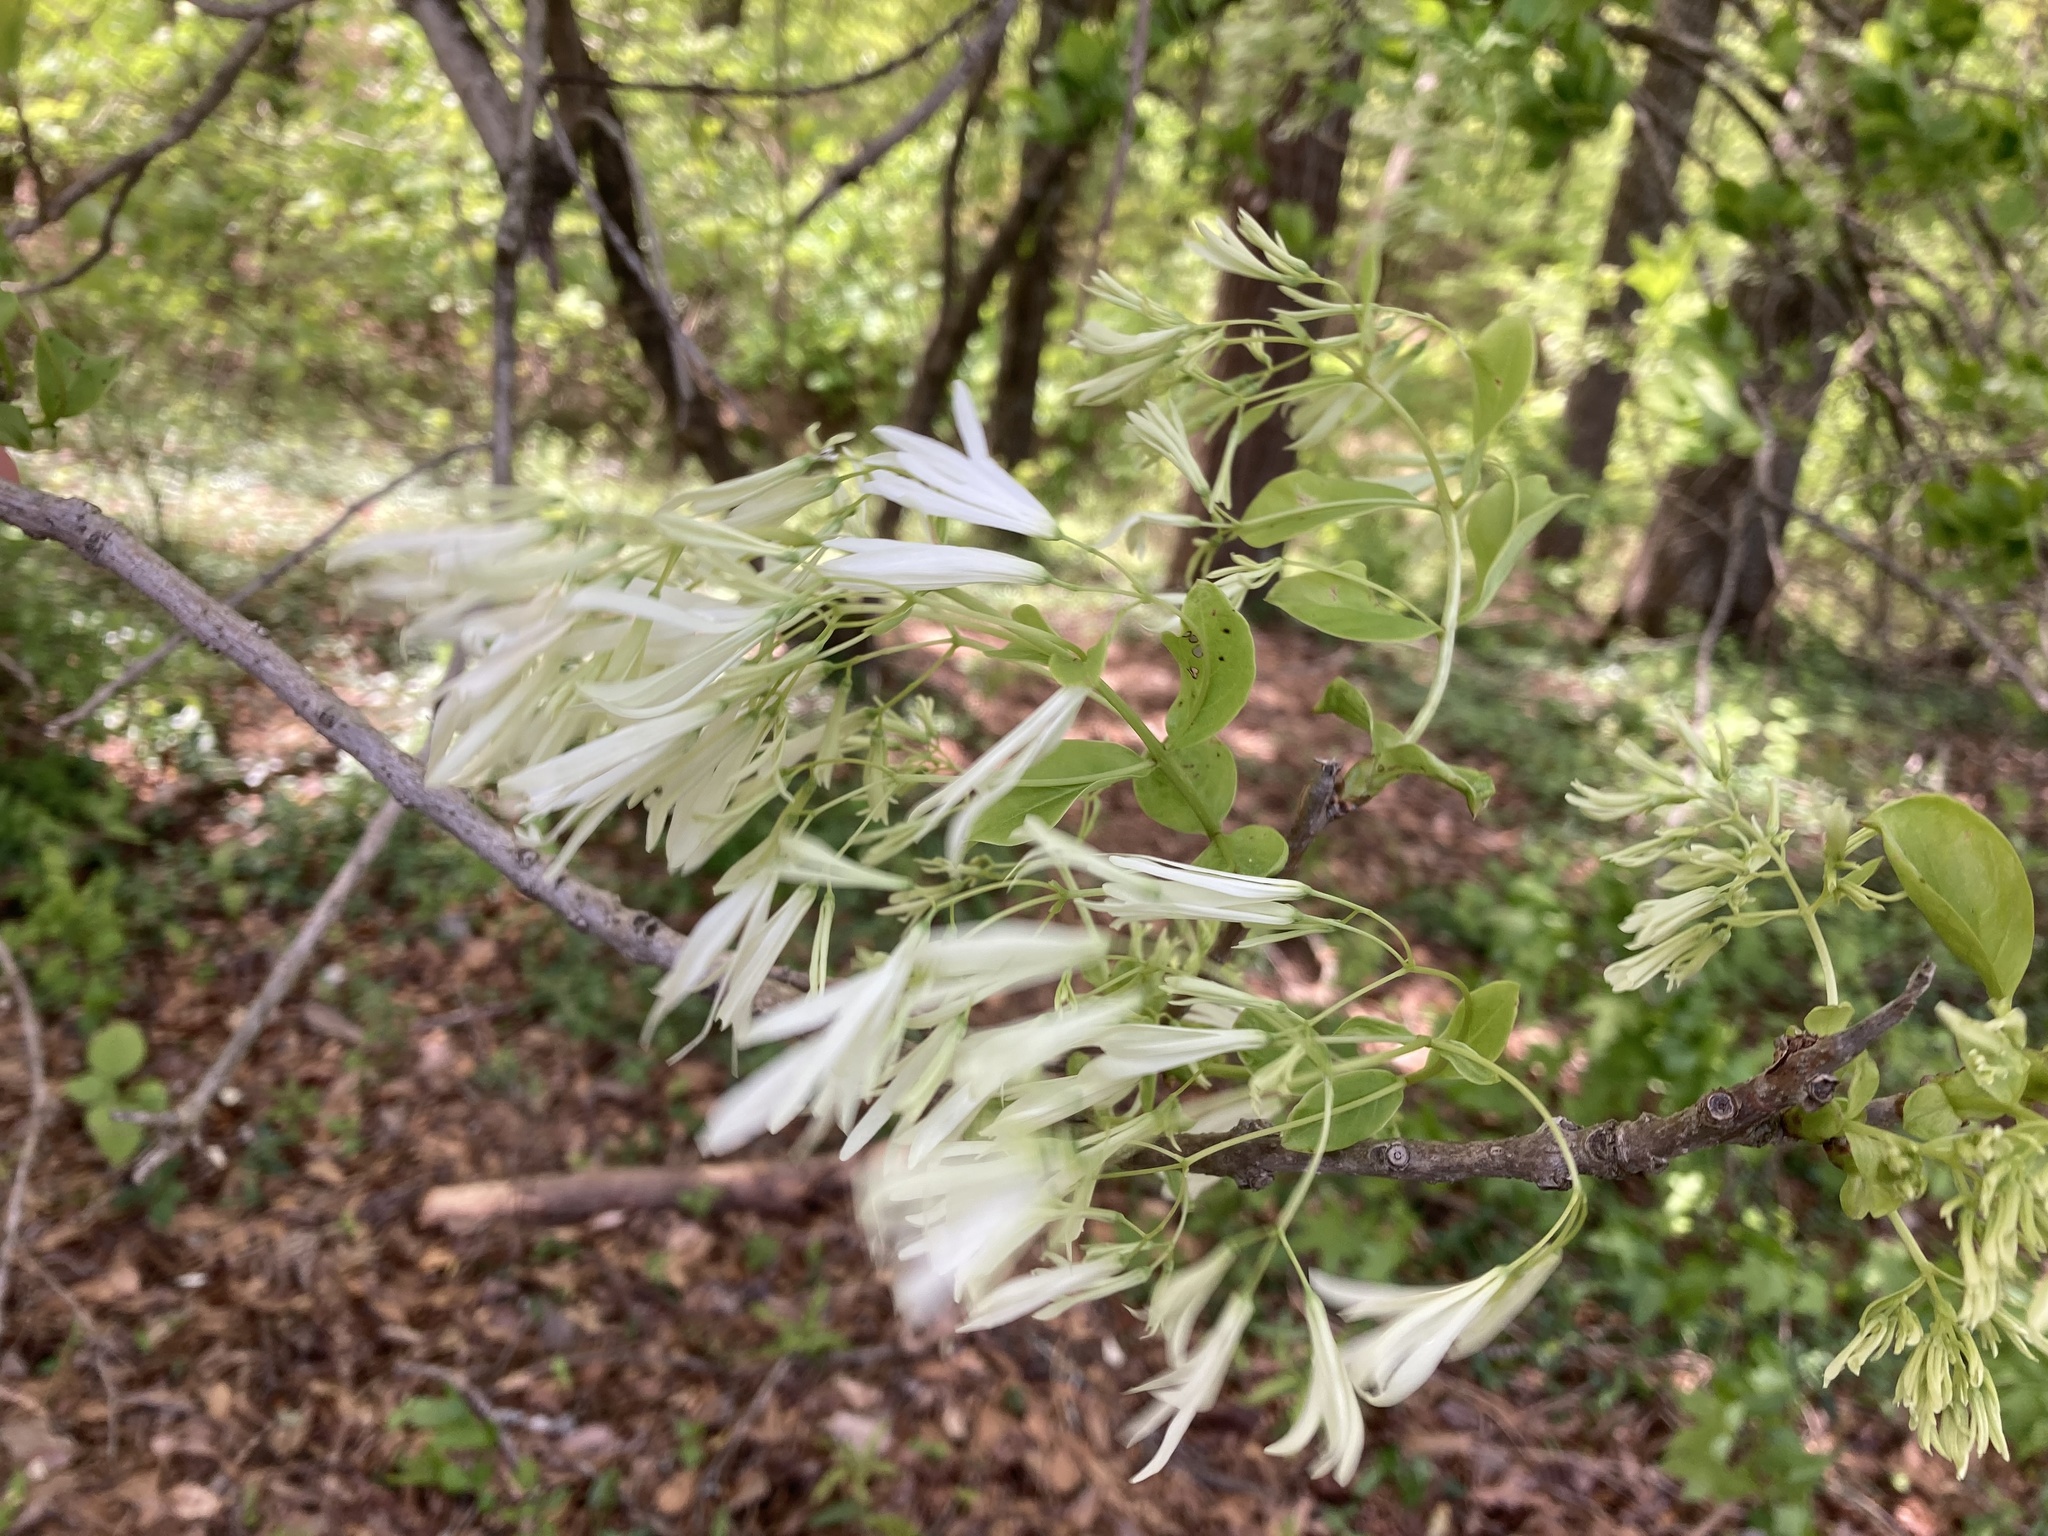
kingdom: Plantae
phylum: Tracheophyta
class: Magnoliopsida
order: Lamiales
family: Oleaceae
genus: Chionanthus
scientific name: Chionanthus virginicus
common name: American fringetree
